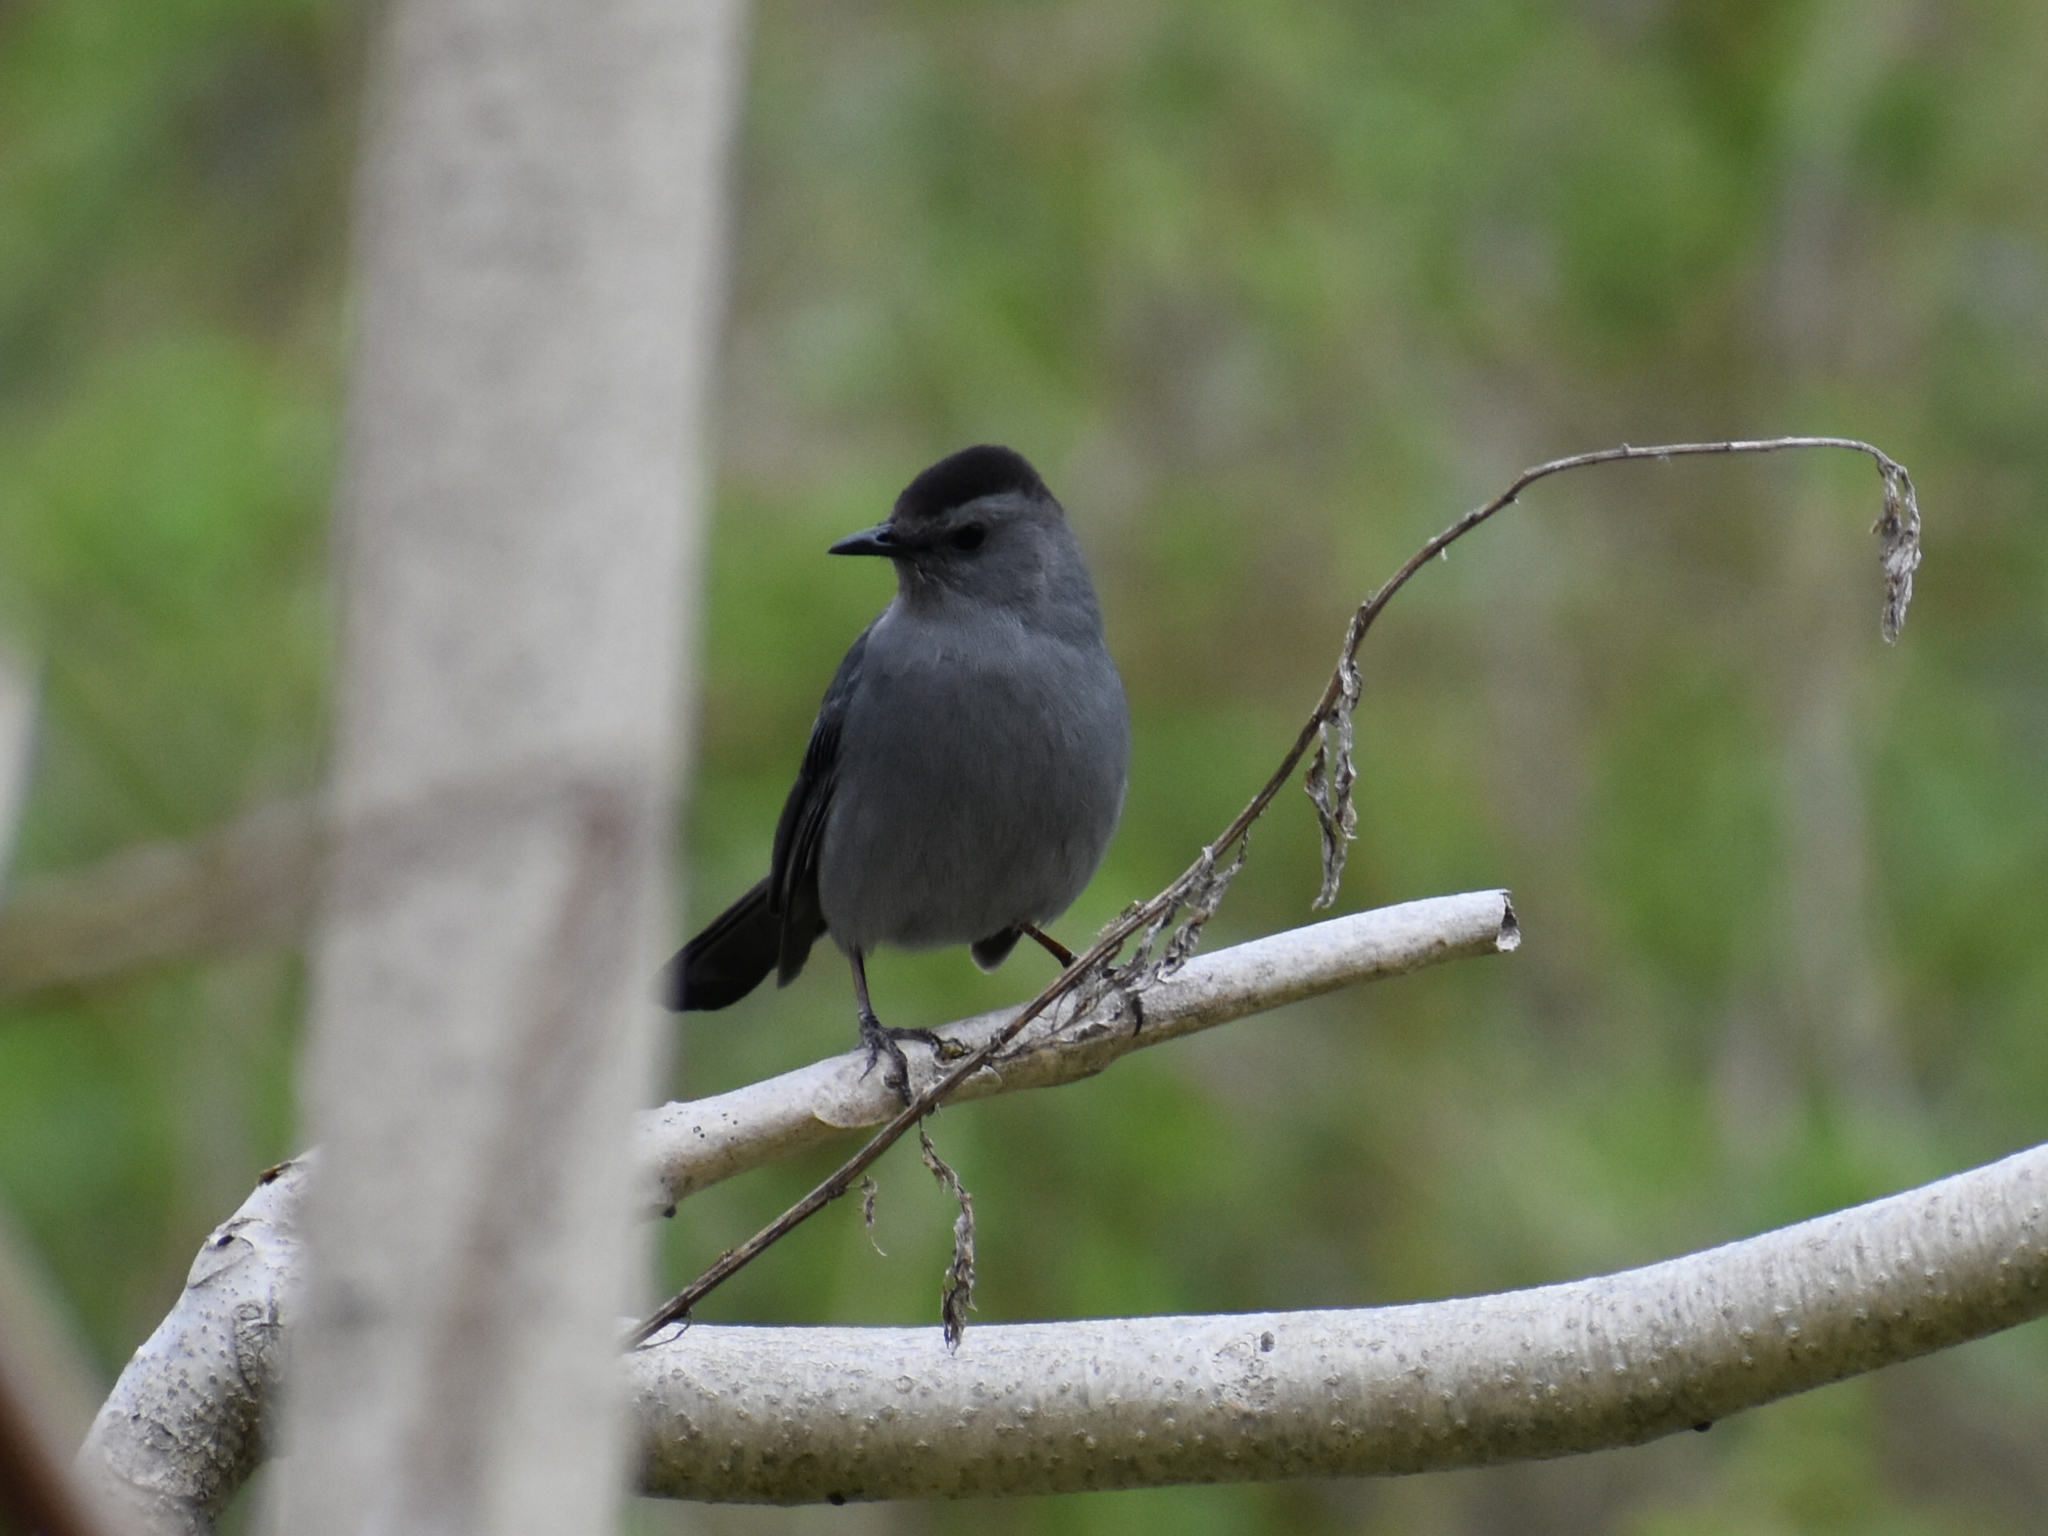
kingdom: Animalia
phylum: Chordata
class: Aves
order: Passeriformes
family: Mimidae
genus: Dumetella
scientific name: Dumetella carolinensis
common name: Gray catbird
